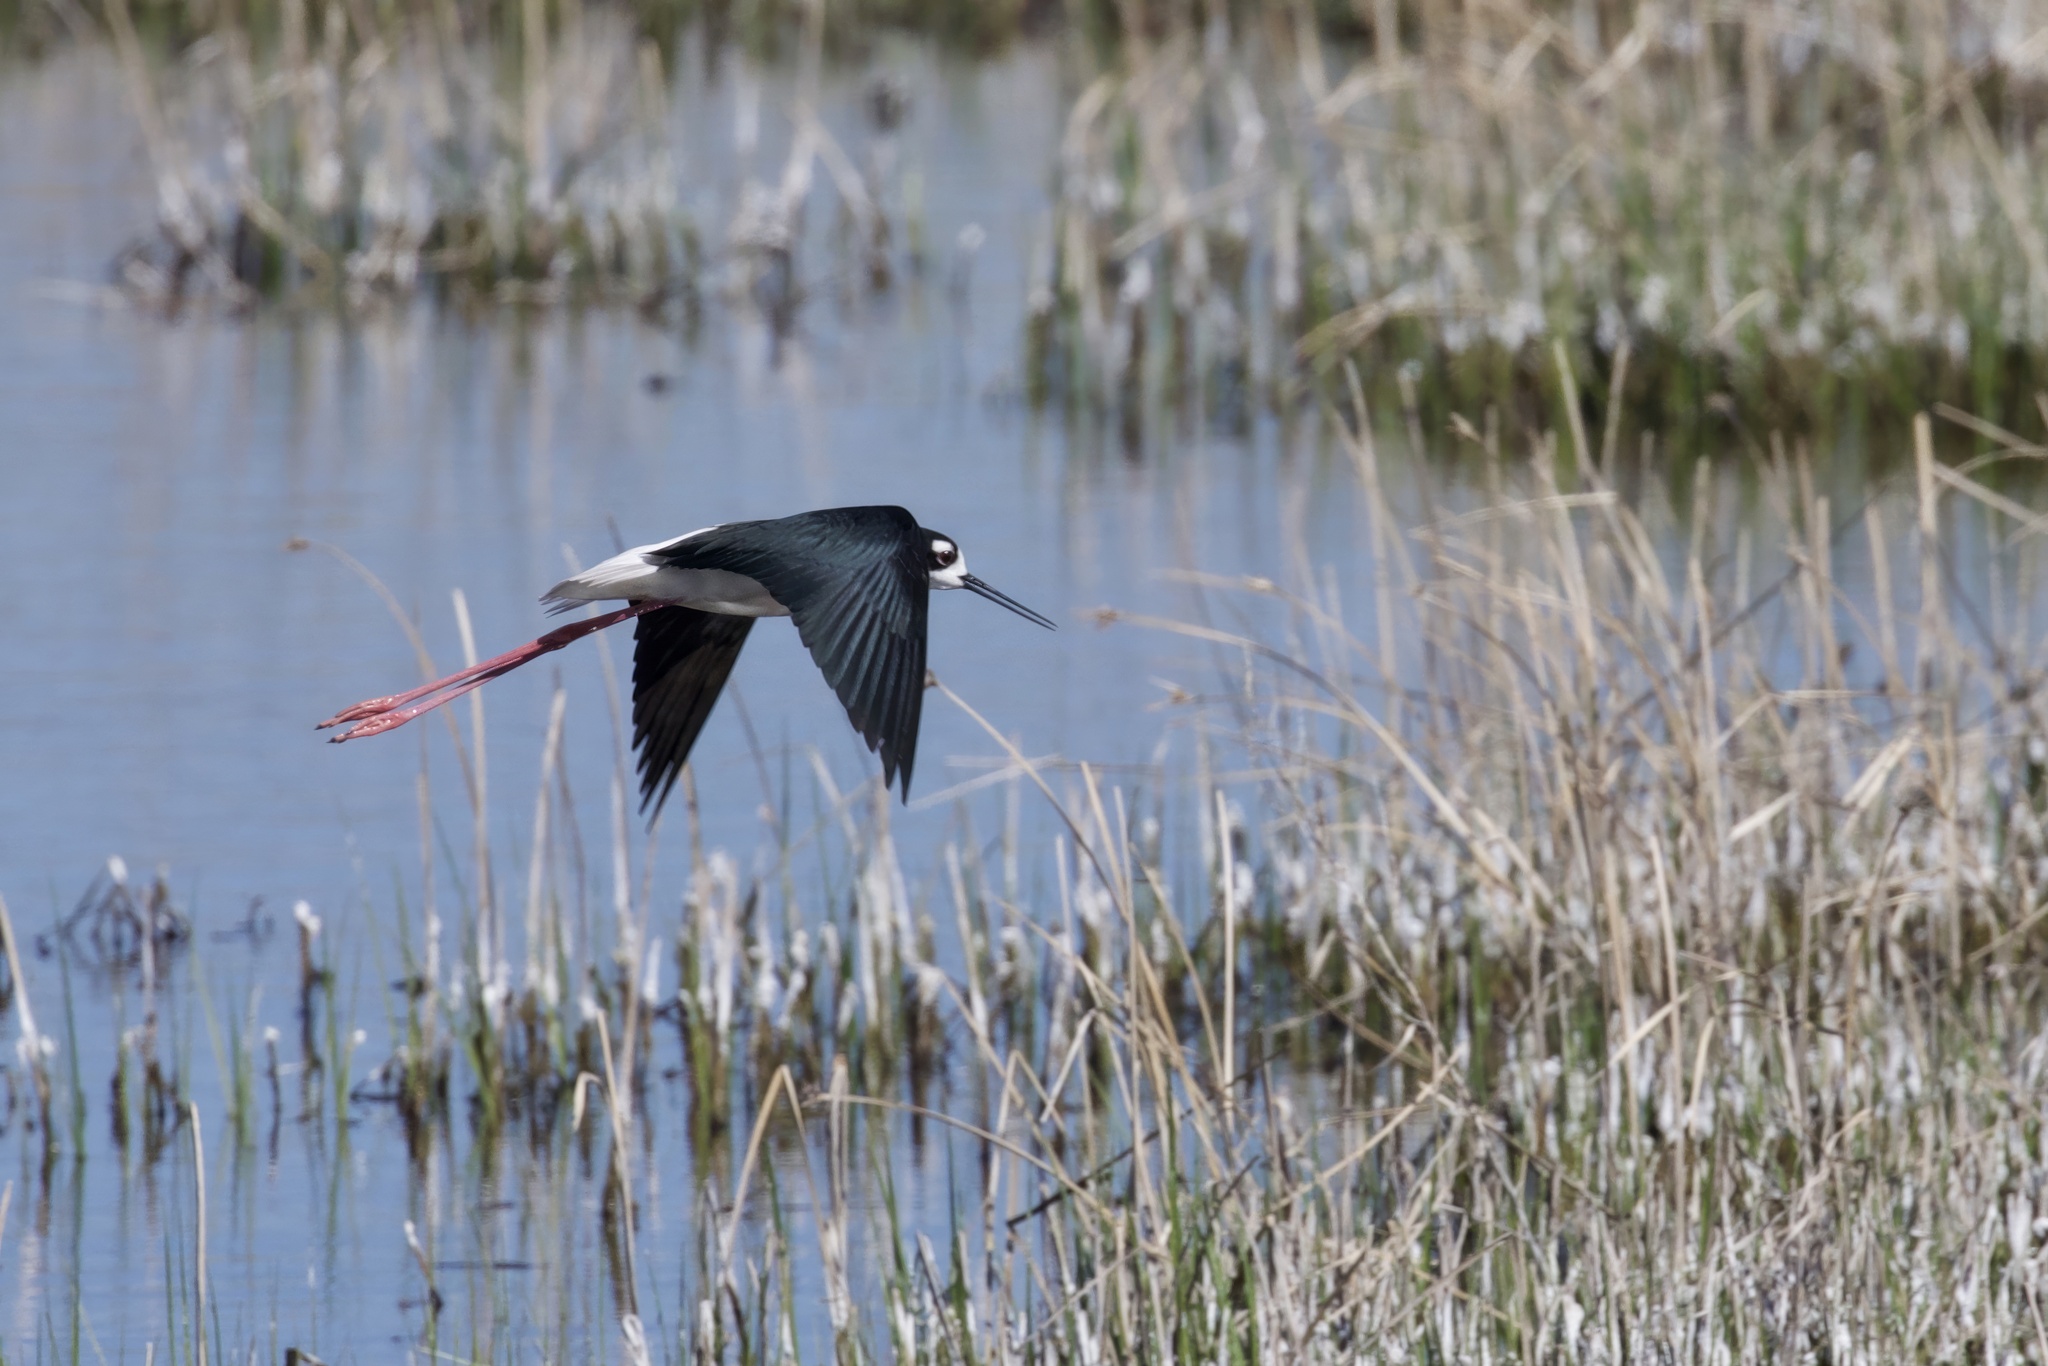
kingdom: Animalia
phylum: Chordata
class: Aves
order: Charadriiformes
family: Recurvirostridae
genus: Himantopus
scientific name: Himantopus mexicanus
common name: Black-necked stilt
